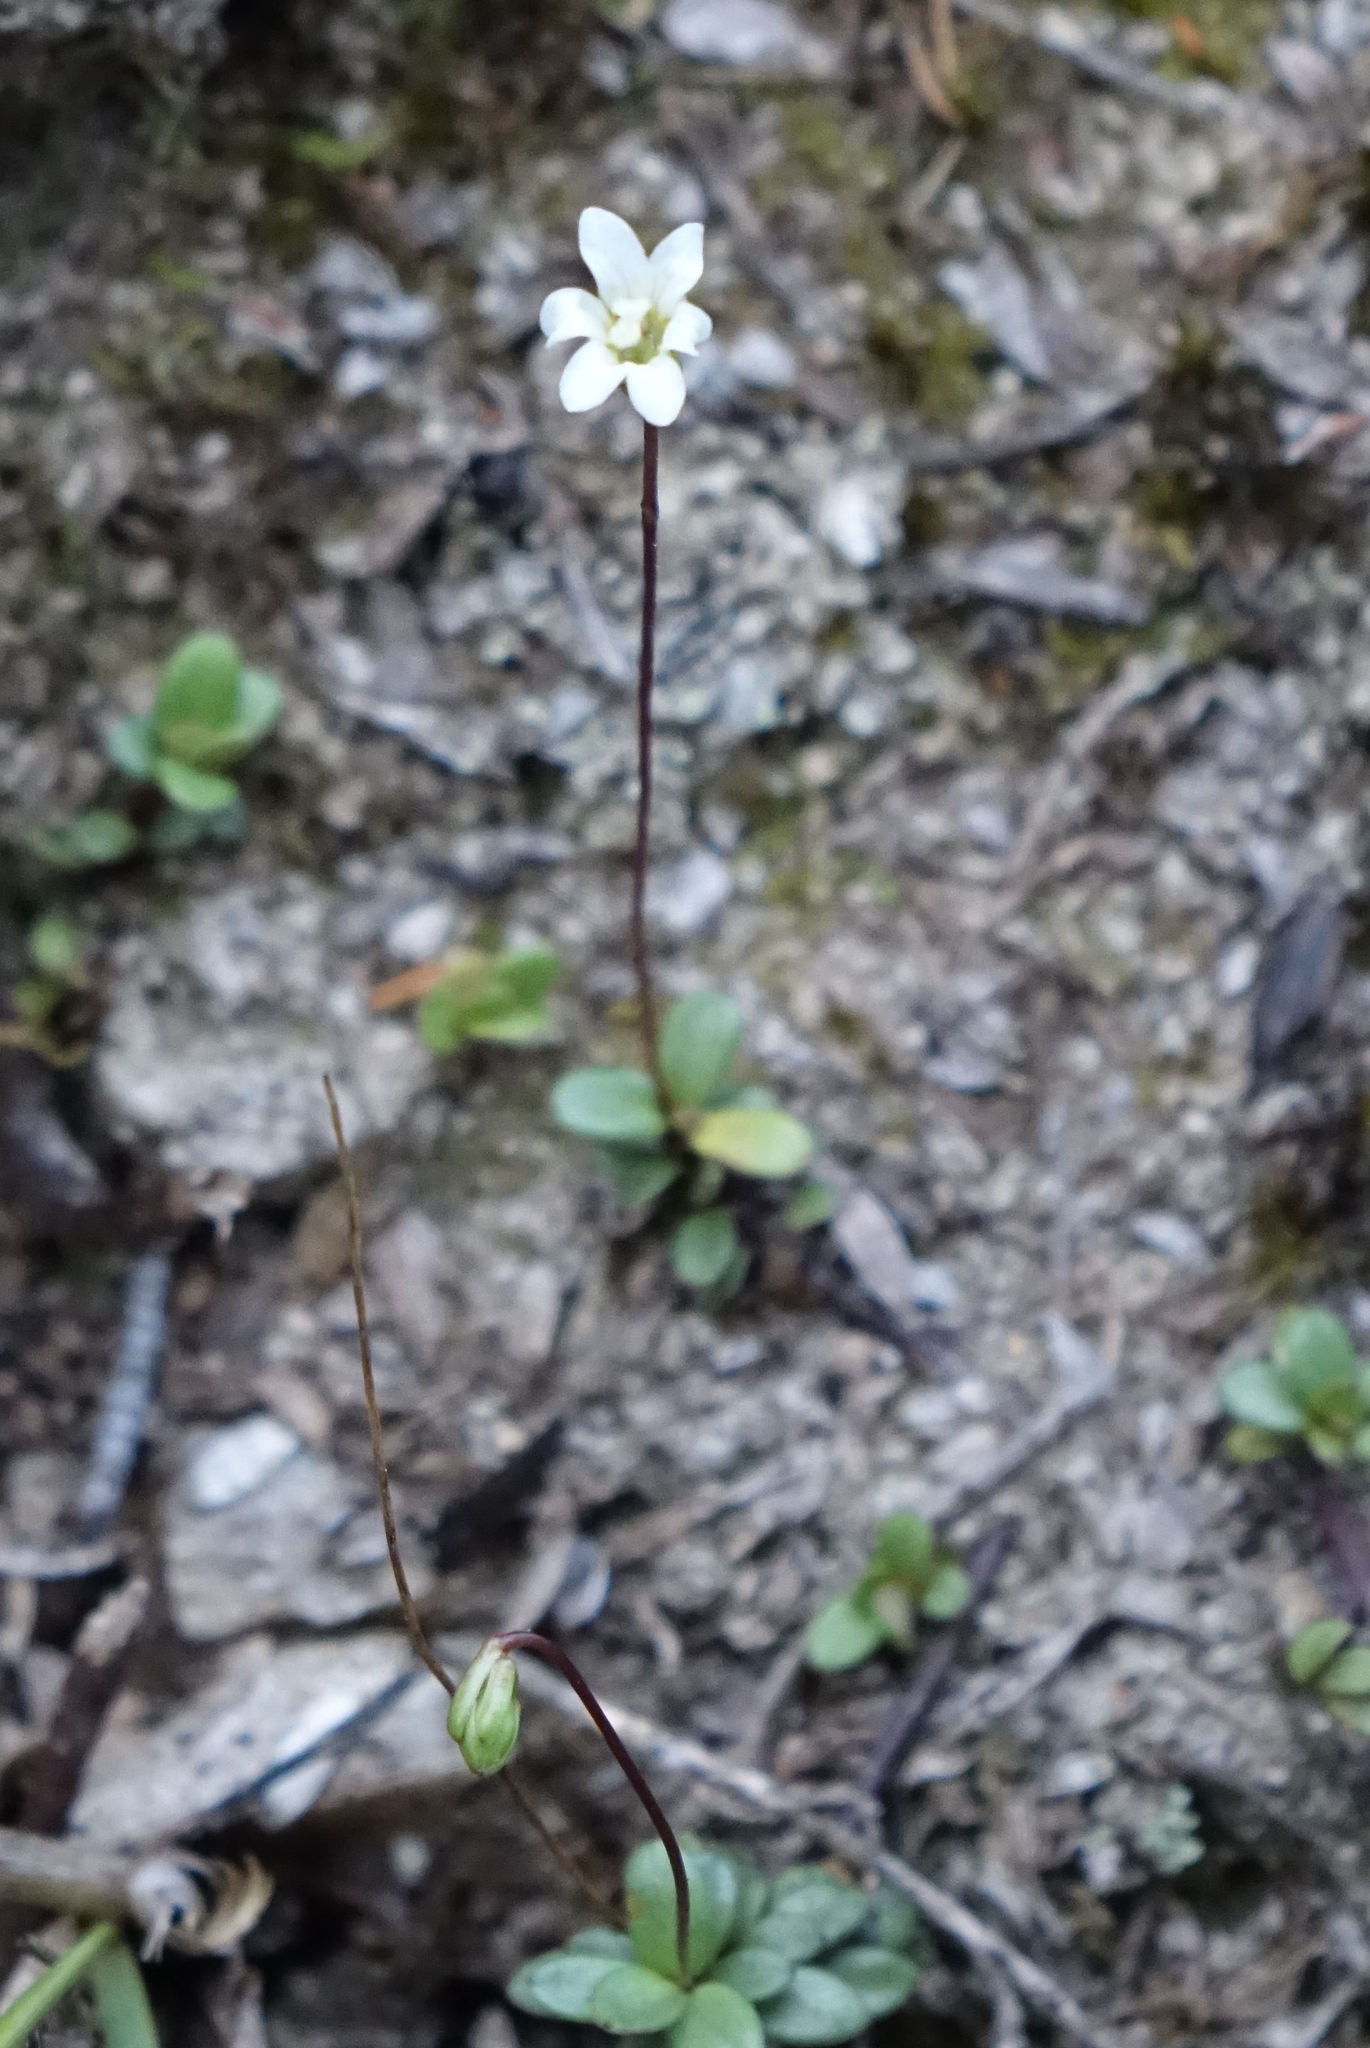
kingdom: Plantae
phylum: Tracheophyta
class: Magnoliopsida
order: Asterales
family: Stylidiaceae
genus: Forstera
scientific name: Forstera tenella
